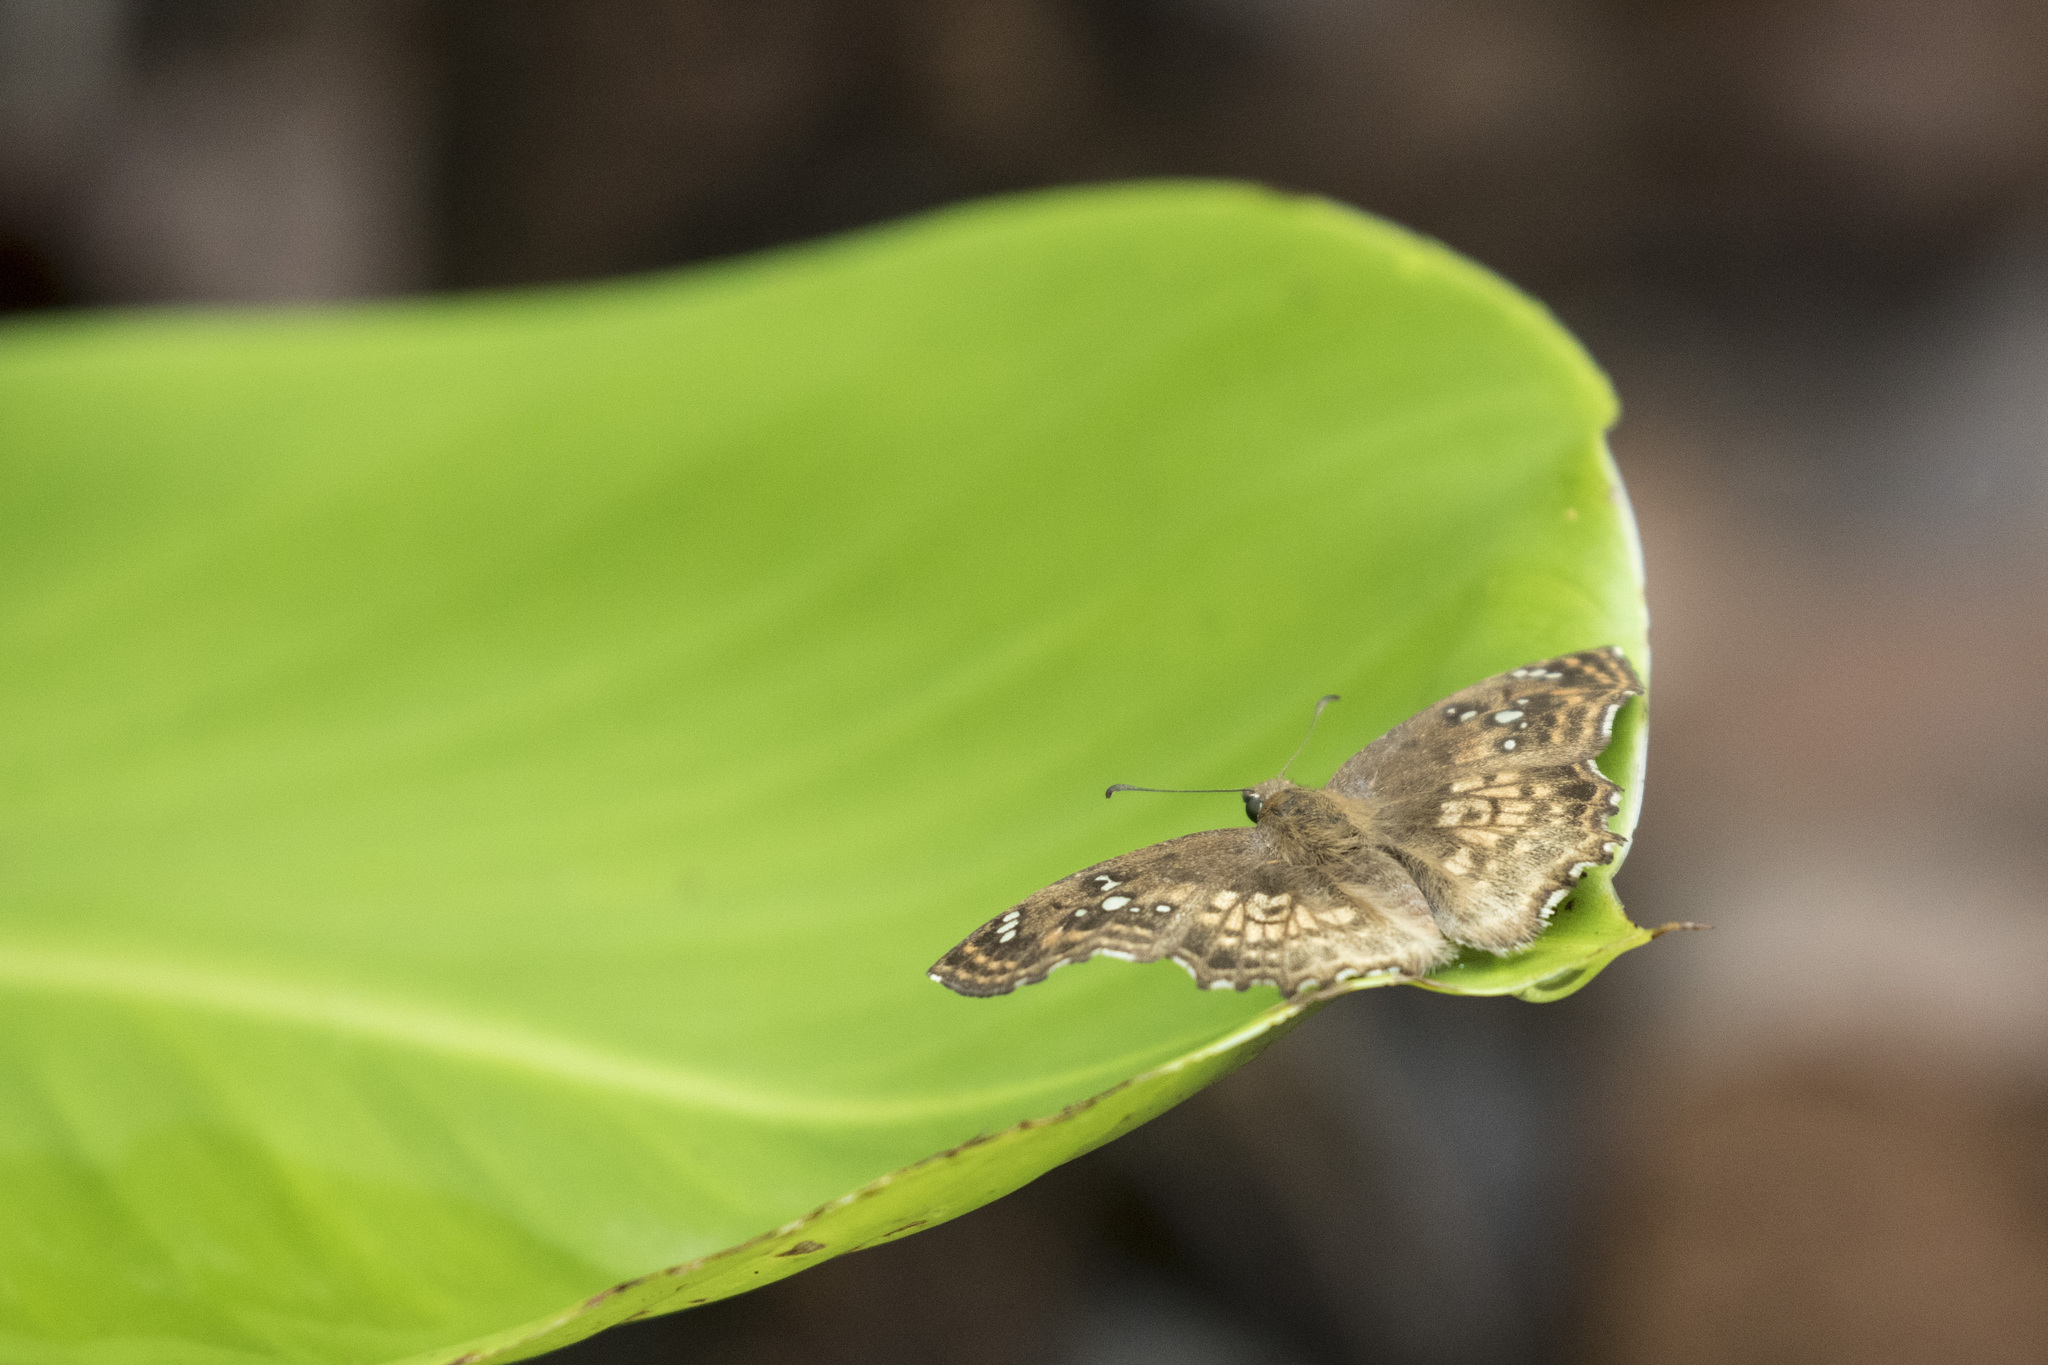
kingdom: Animalia
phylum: Arthropoda
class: Insecta
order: Lepidoptera
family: Hesperiidae
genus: Caprona
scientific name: Caprona ransonnettii
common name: Golden angle
